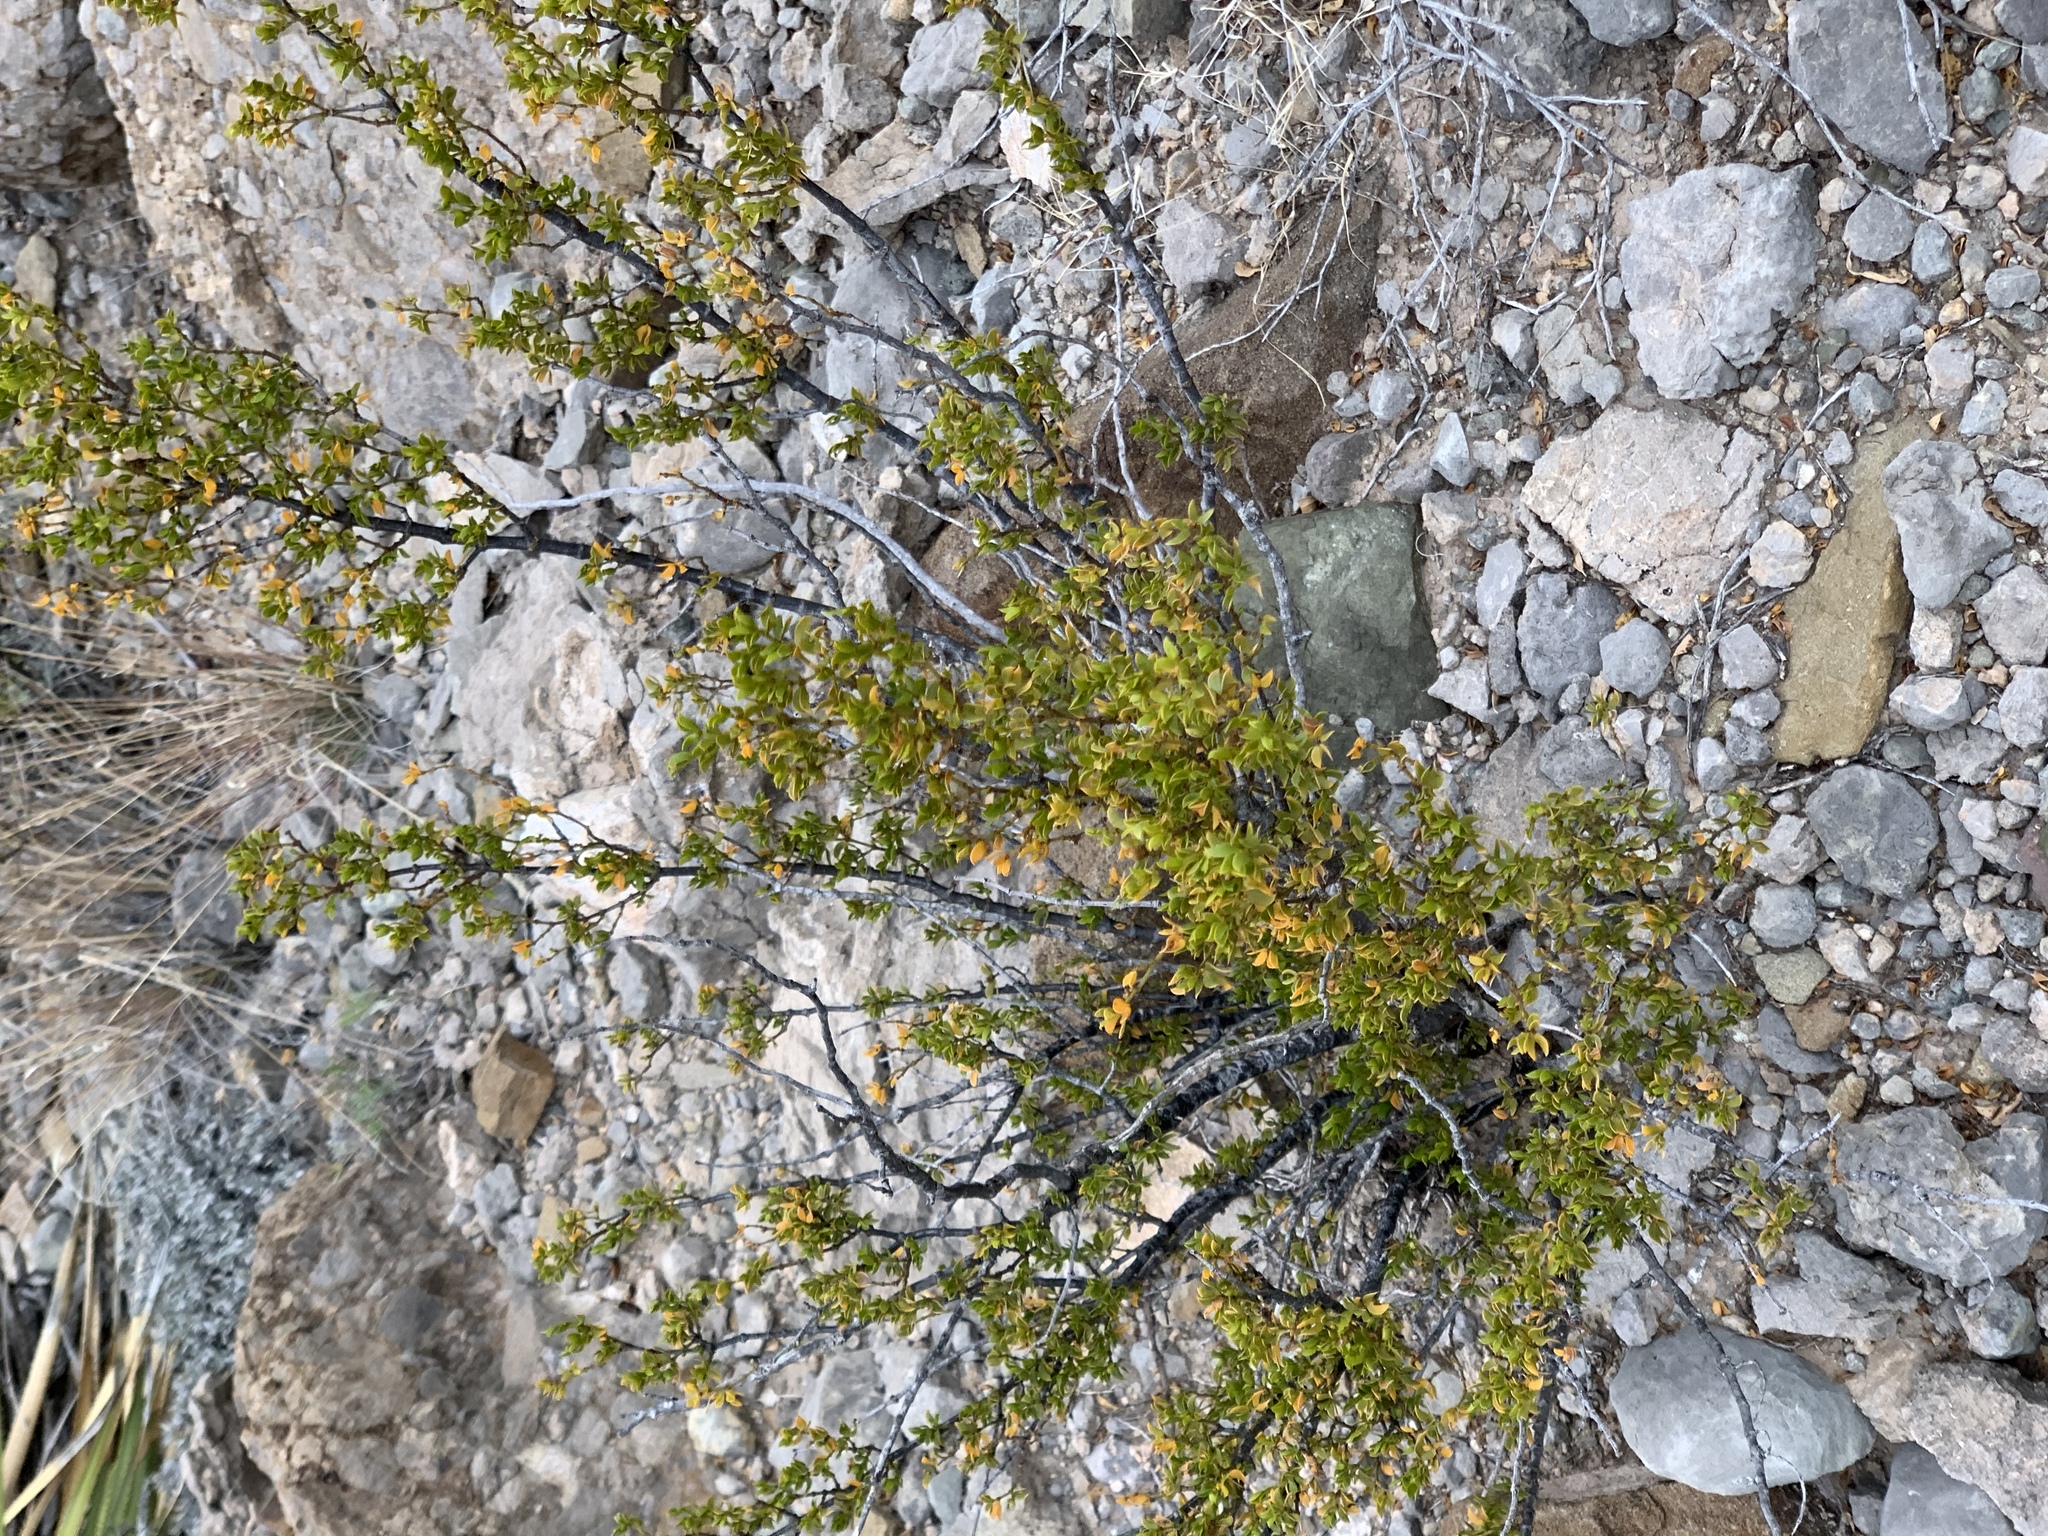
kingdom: Plantae
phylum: Tracheophyta
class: Magnoliopsida
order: Zygophyllales
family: Zygophyllaceae
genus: Larrea
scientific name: Larrea tridentata
